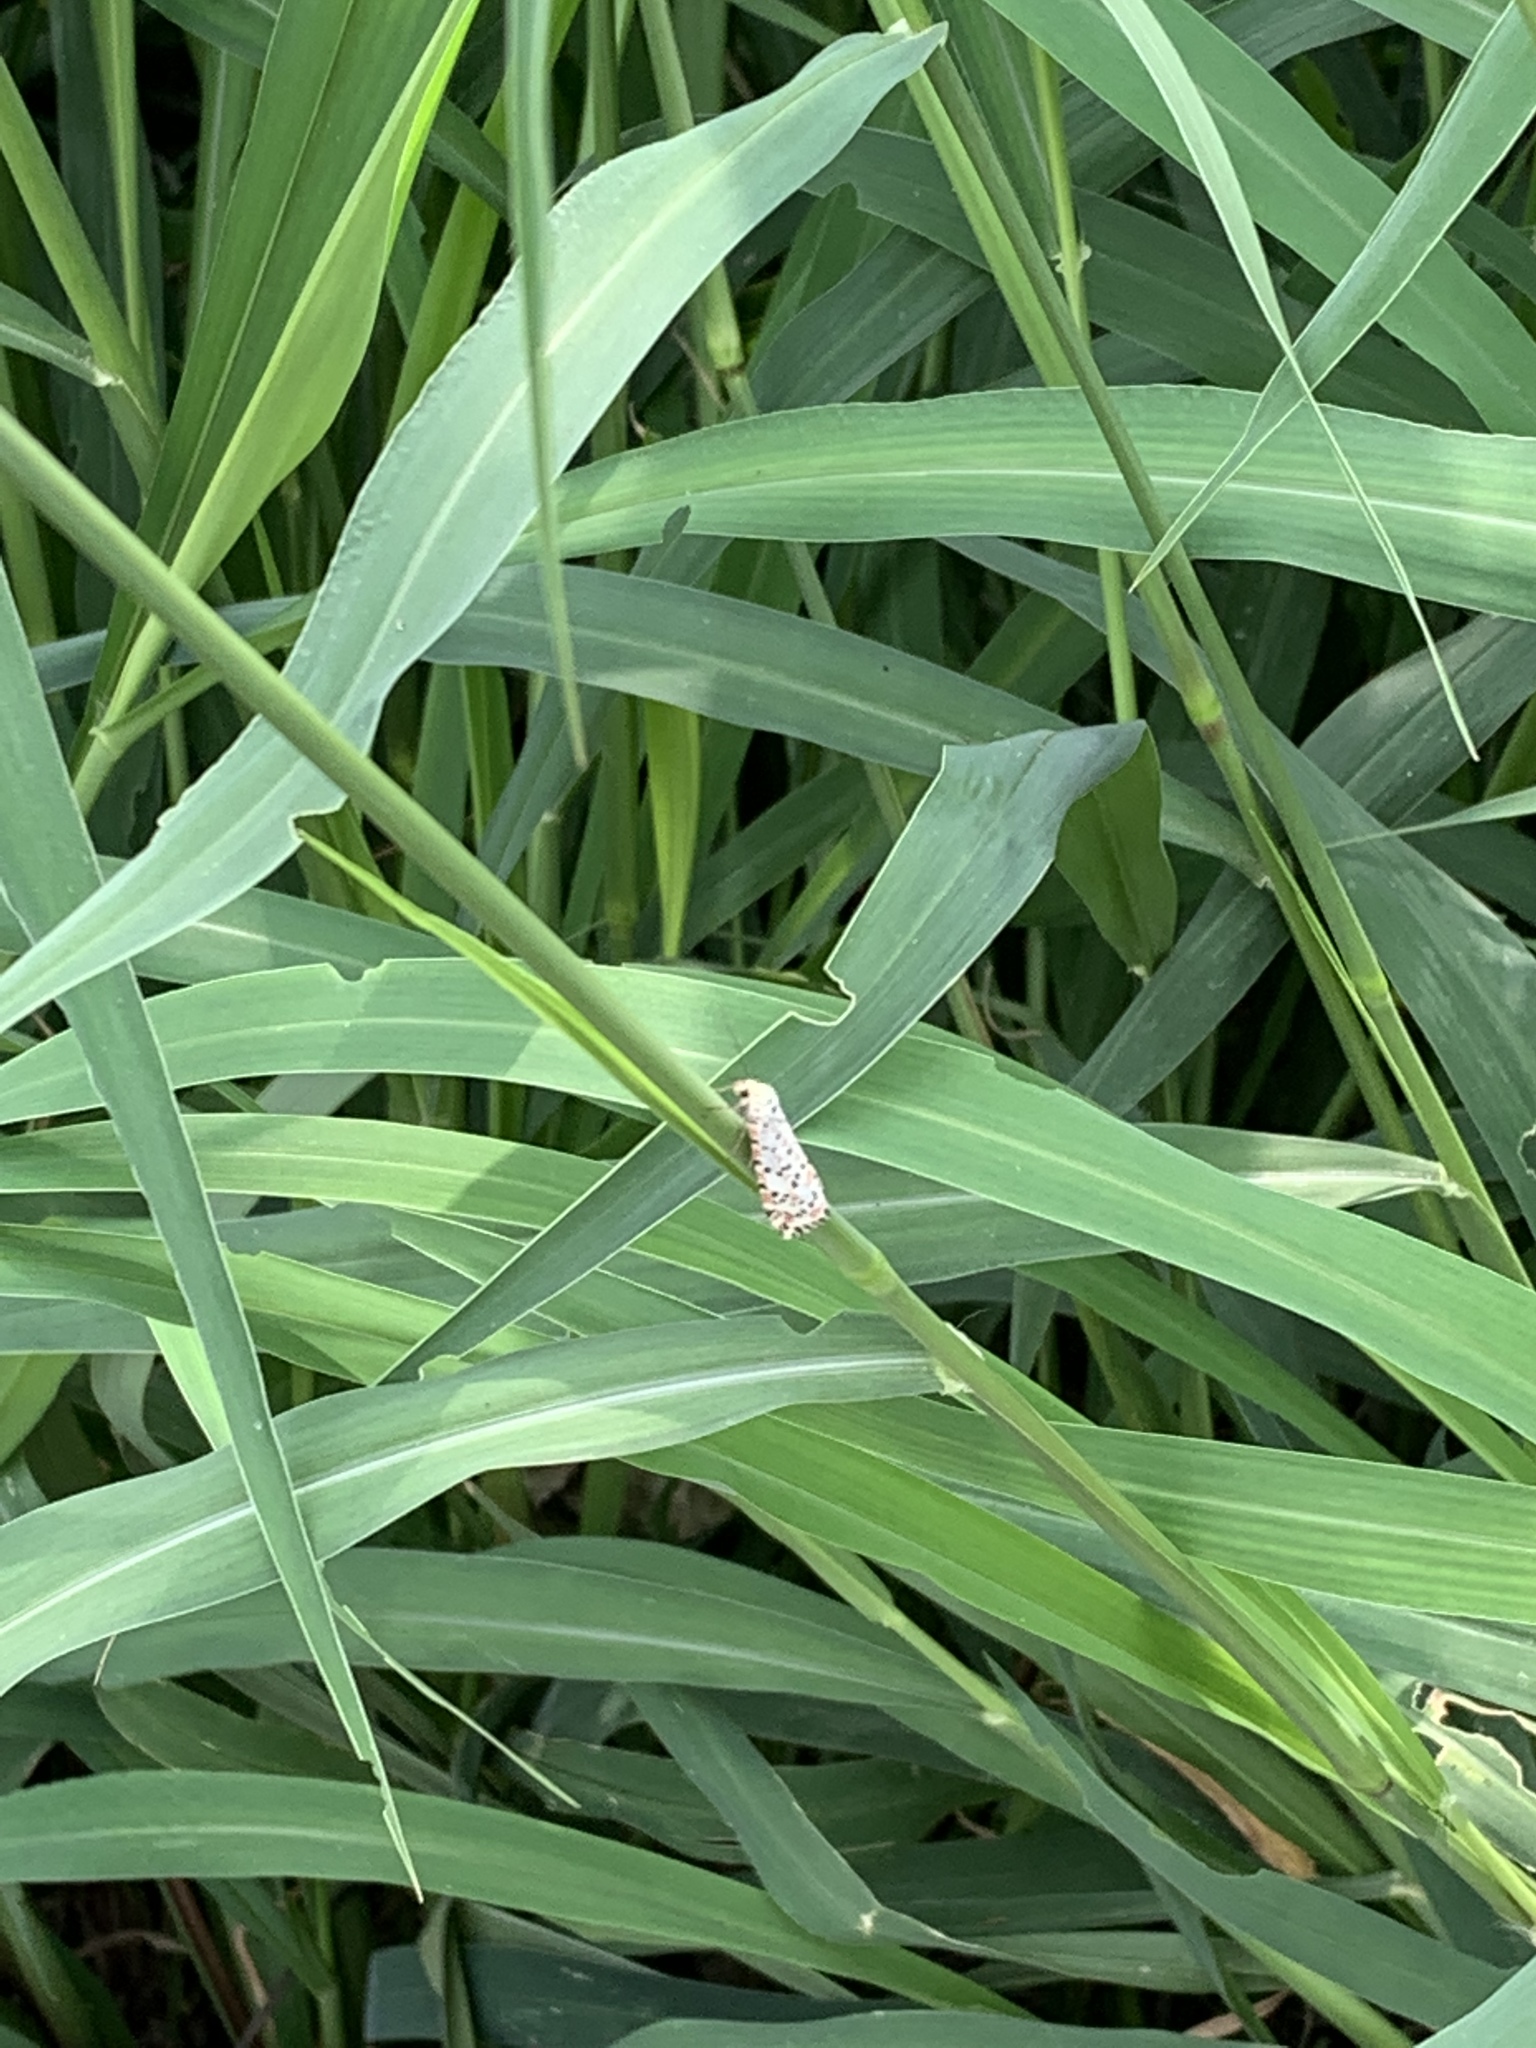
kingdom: Animalia
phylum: Arthropoda
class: Insecta
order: Lepidoptera
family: Erebidae
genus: Utetheisa
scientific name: Utetheisa pulchelloides
